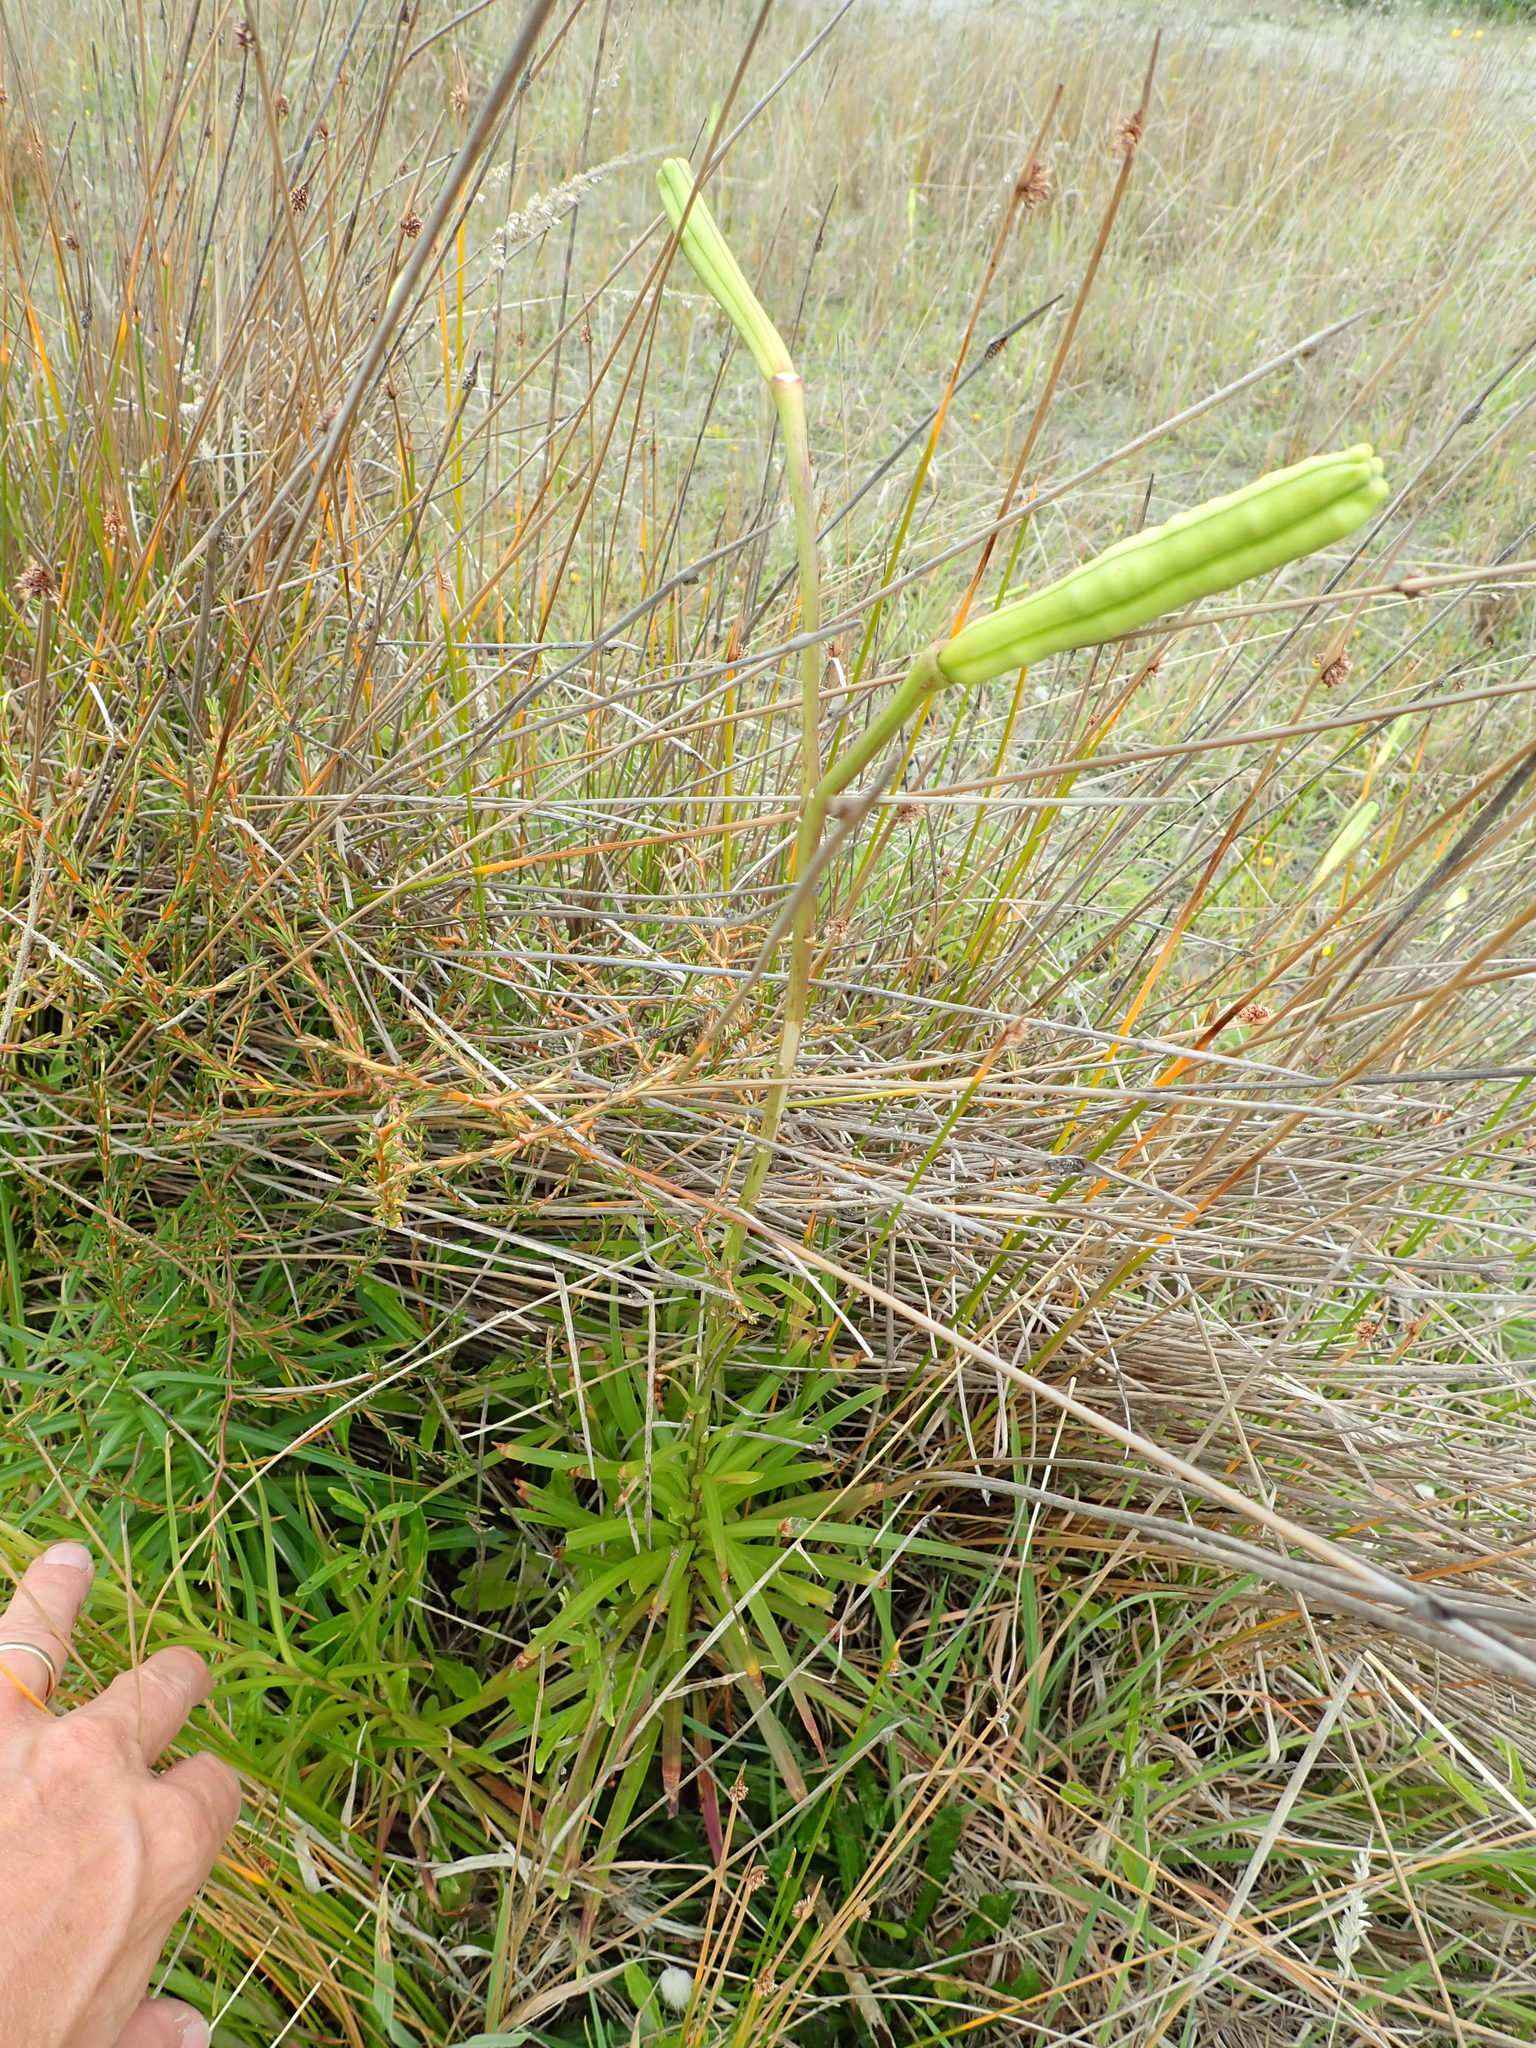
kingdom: Plantae
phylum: Tracheophyta
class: Liliopsida
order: Liliales
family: Liliaceae
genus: Lilium
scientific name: Lilium formosanum
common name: Formosa lily
